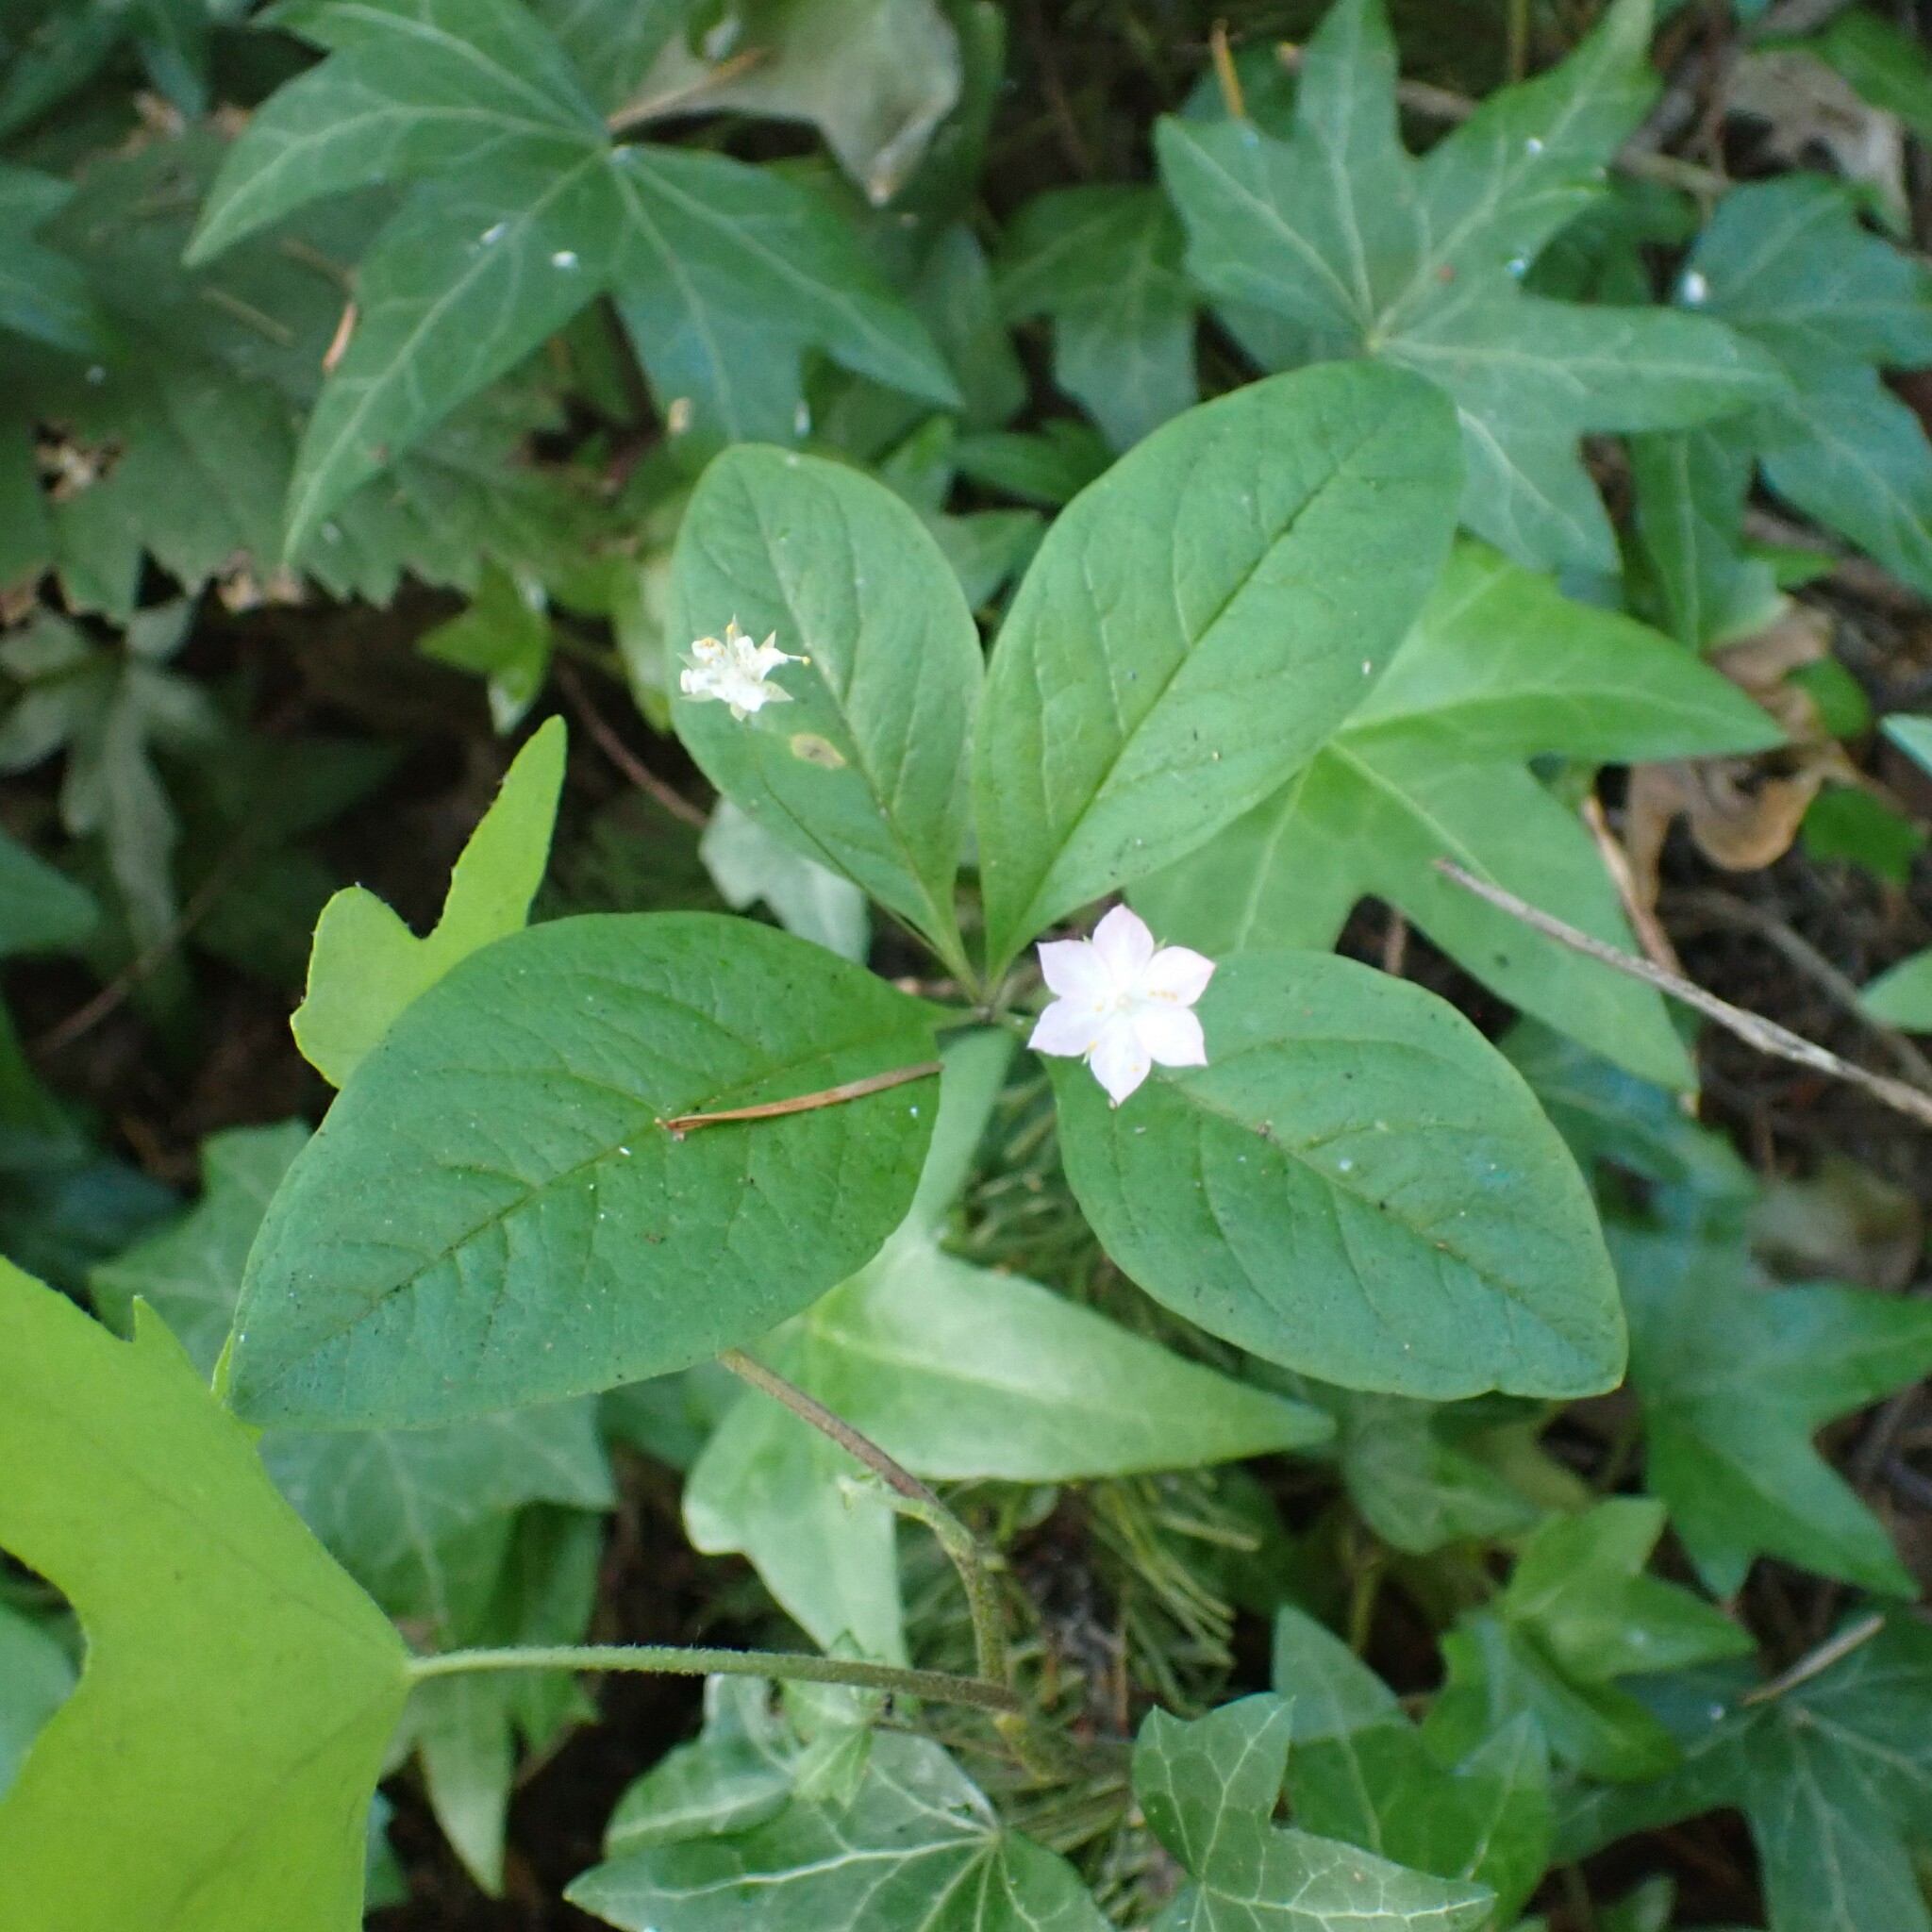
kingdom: Plantae
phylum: Tracheophyta
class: Magnoliopsida
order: Ericales
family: Primulaceae
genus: Lysimachia
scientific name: Lysimachia latifolia
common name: Pacific starflower
